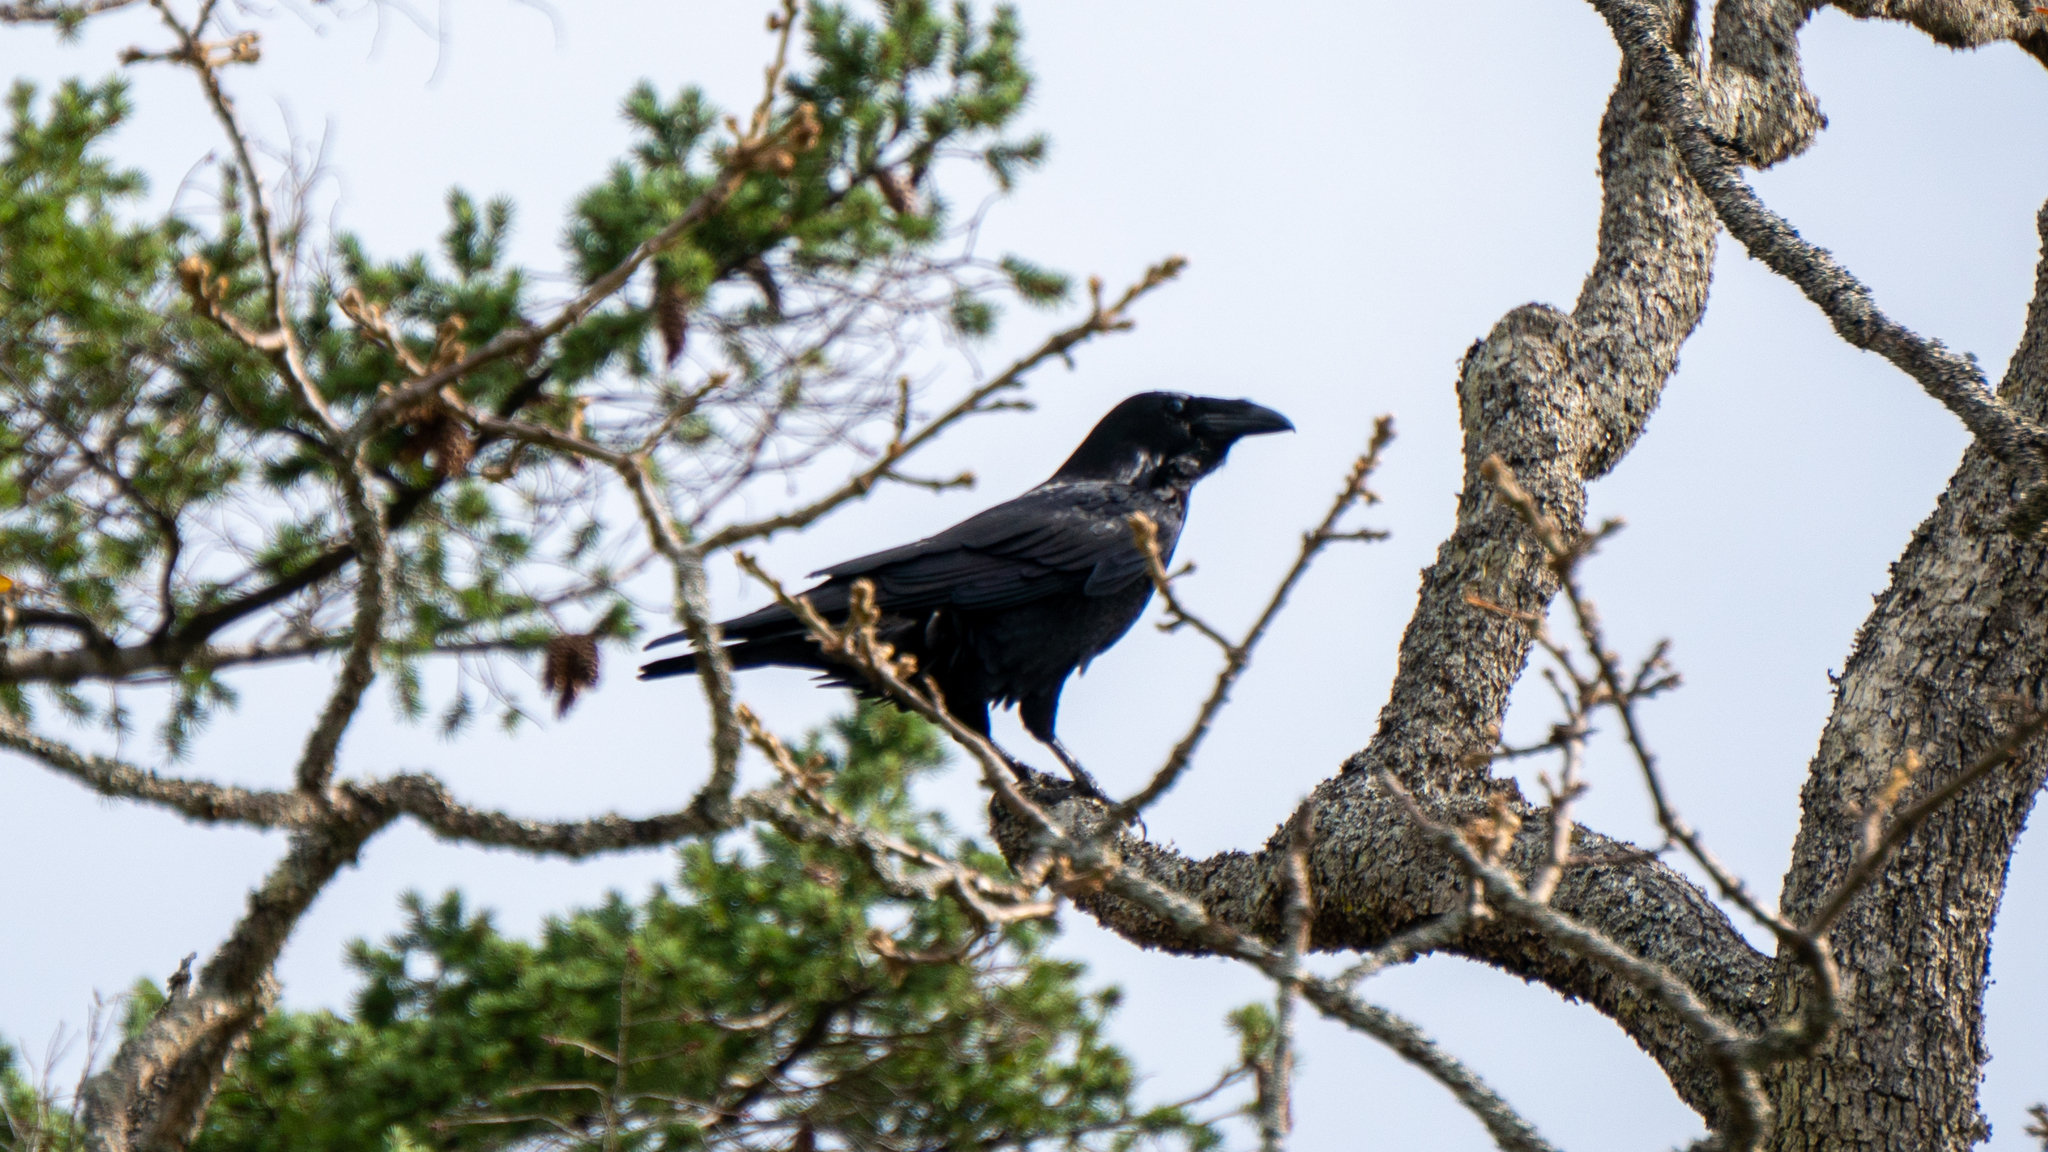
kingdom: Animalia
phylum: Chordata
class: Aves
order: Passeriformes
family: Corvidae
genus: Corvus
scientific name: Corvus corax
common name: Common raven
